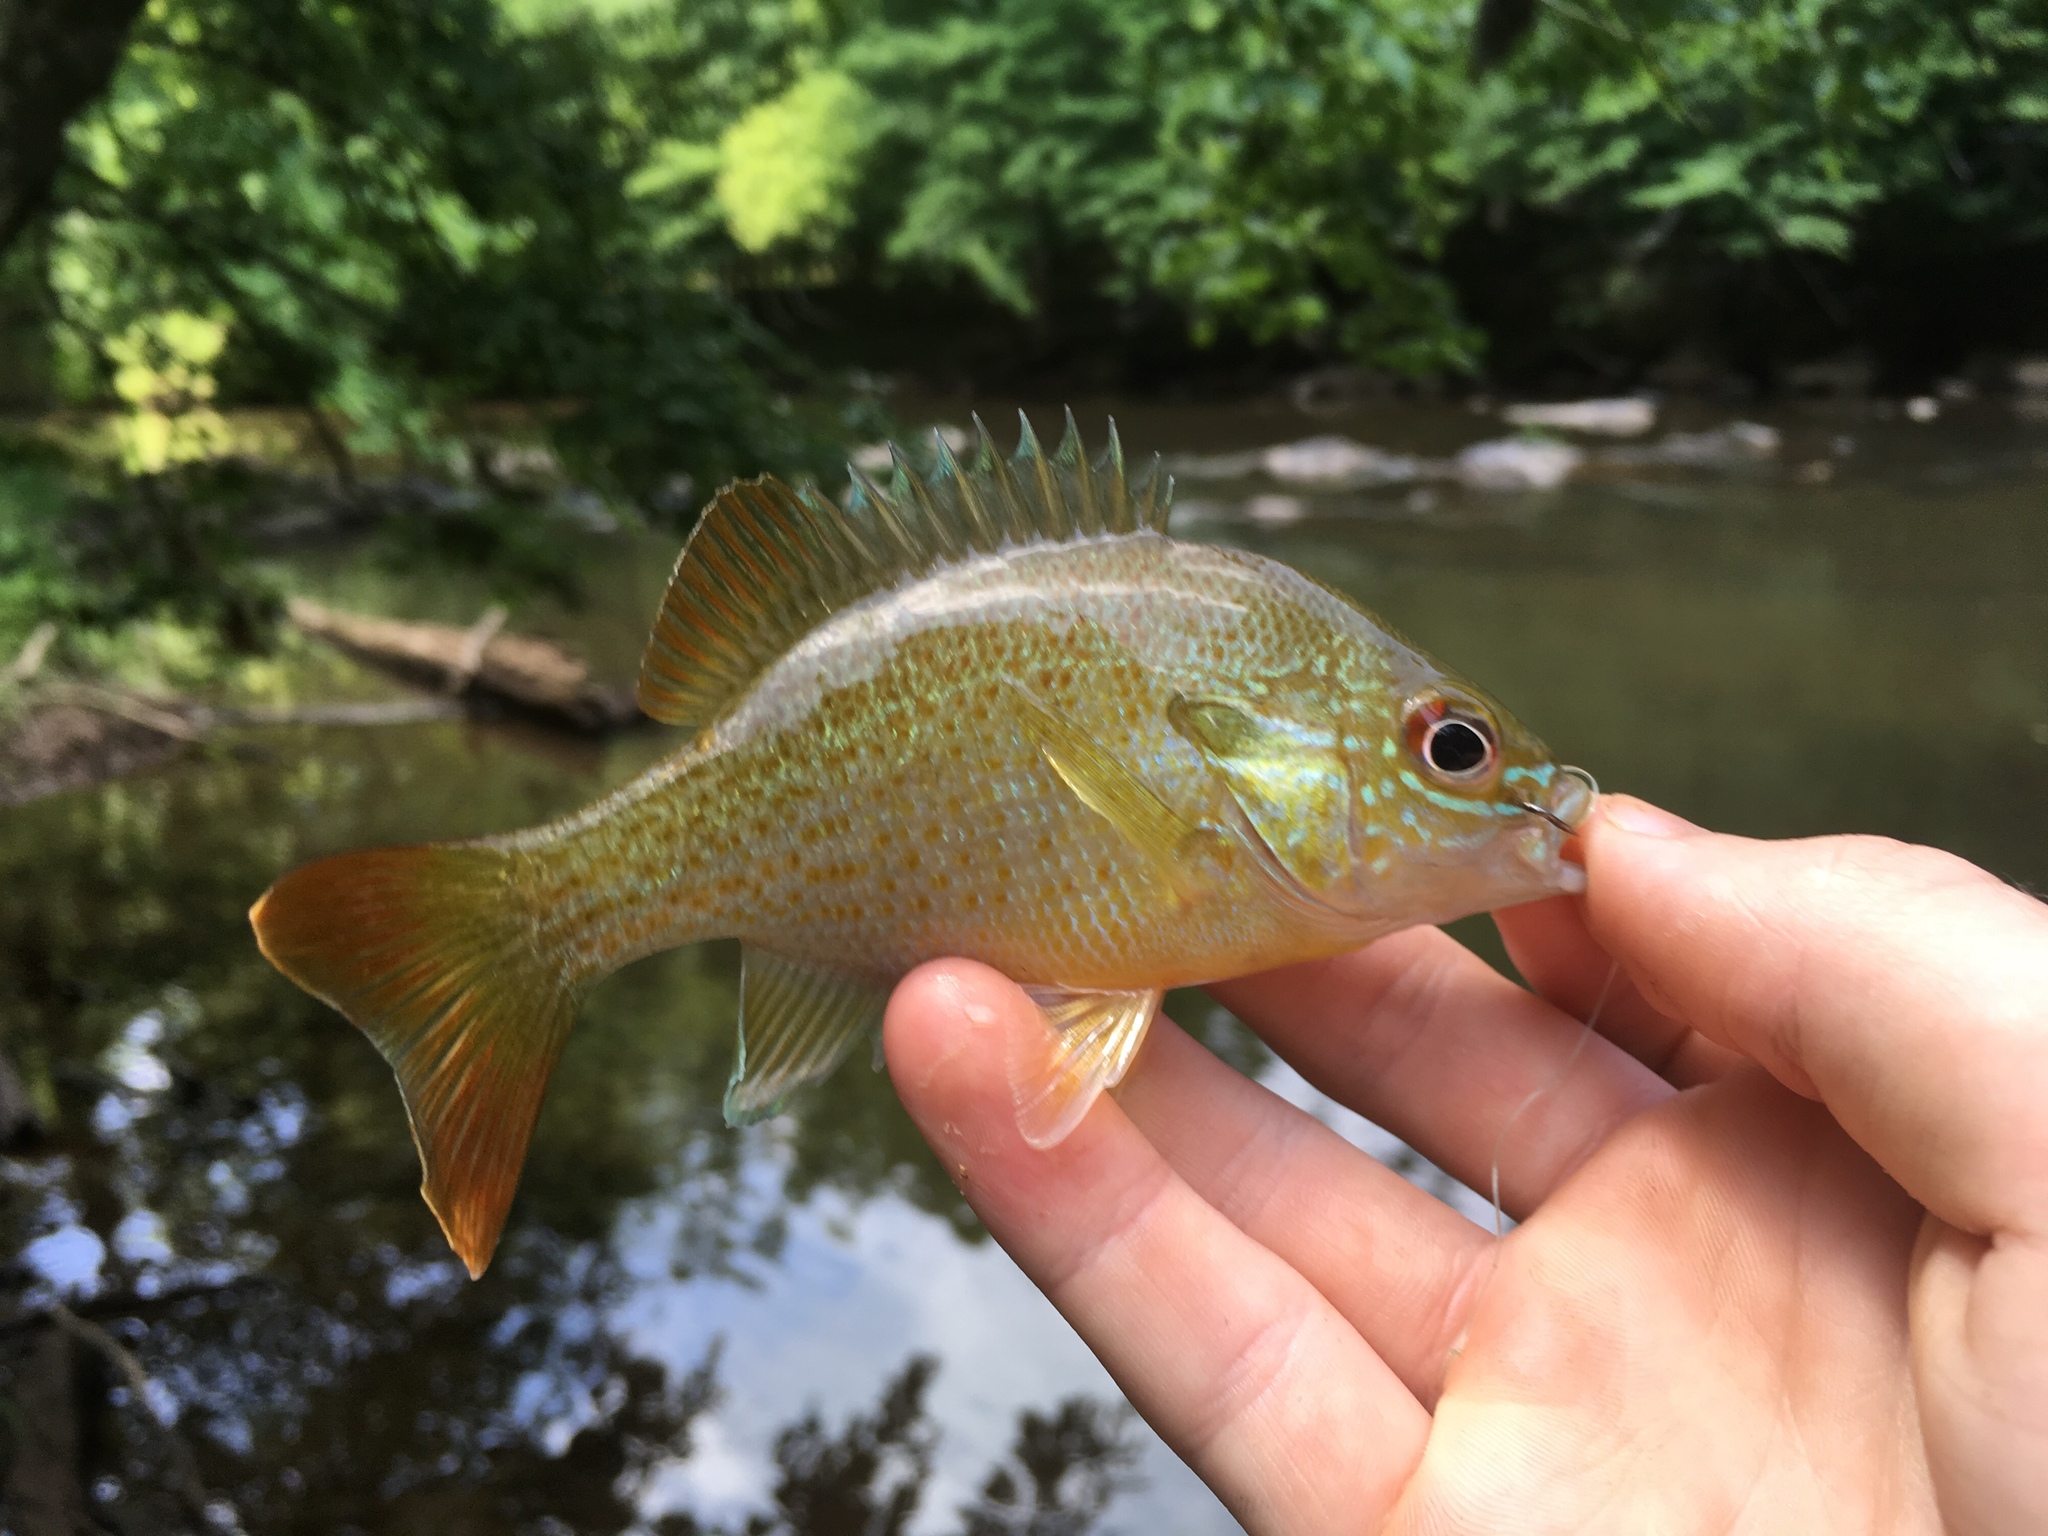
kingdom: Animalia
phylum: Chordata
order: Perciformes
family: Centrarchidae
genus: Lepomis
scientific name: Lepomis auritus
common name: Redbreast sunfish
